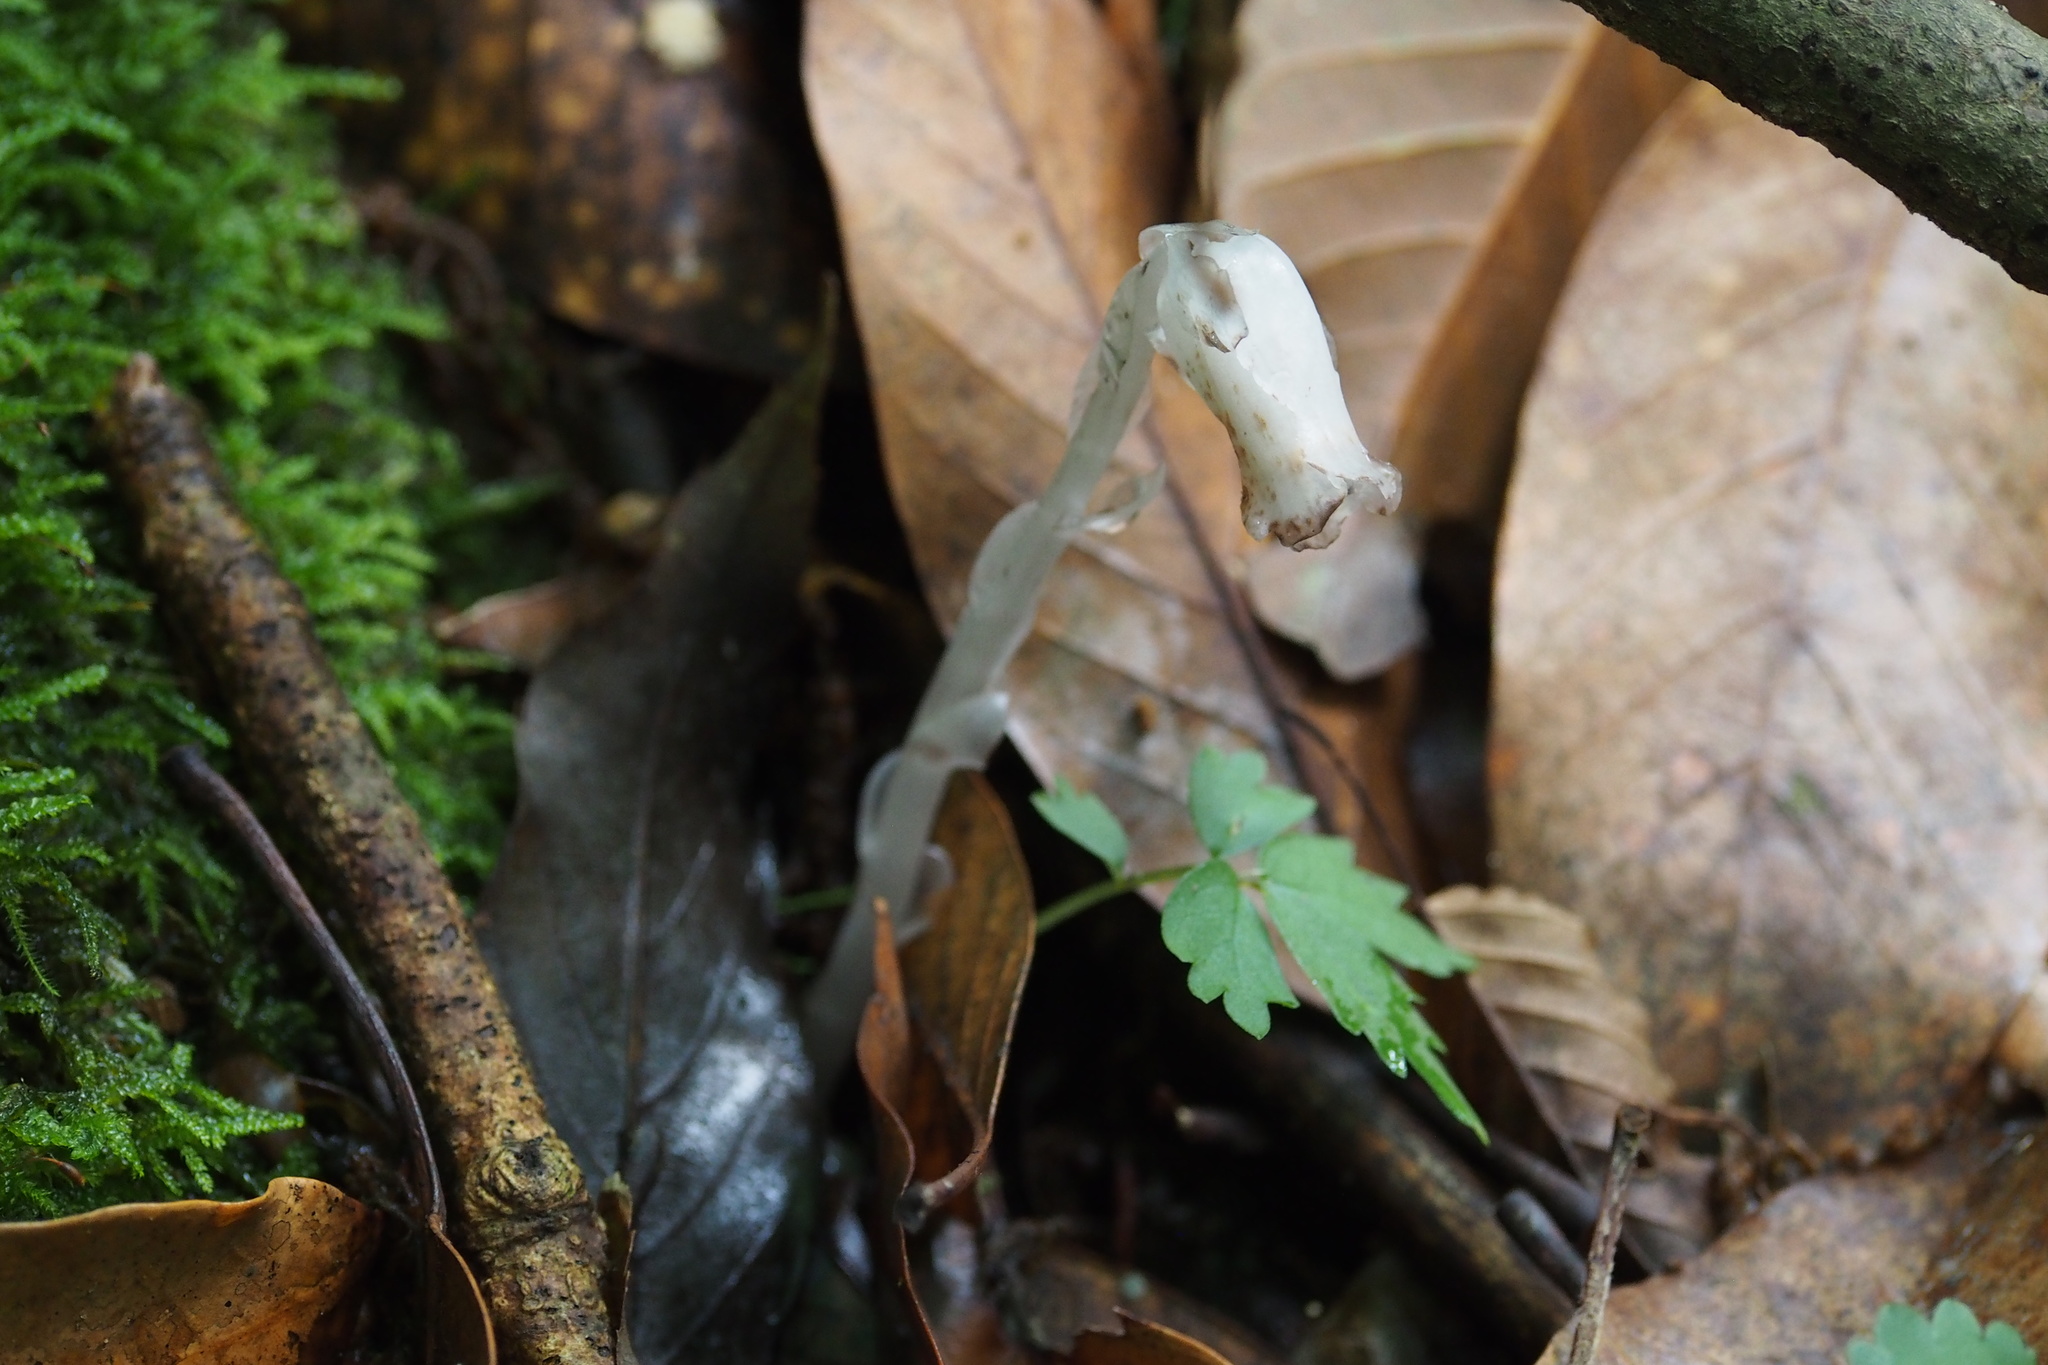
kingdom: Plantae
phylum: Tracheophyta
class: Magnoliopsida
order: Ericales
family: Ericaceae
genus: Monotropastrum
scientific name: Monotropastrum humile
